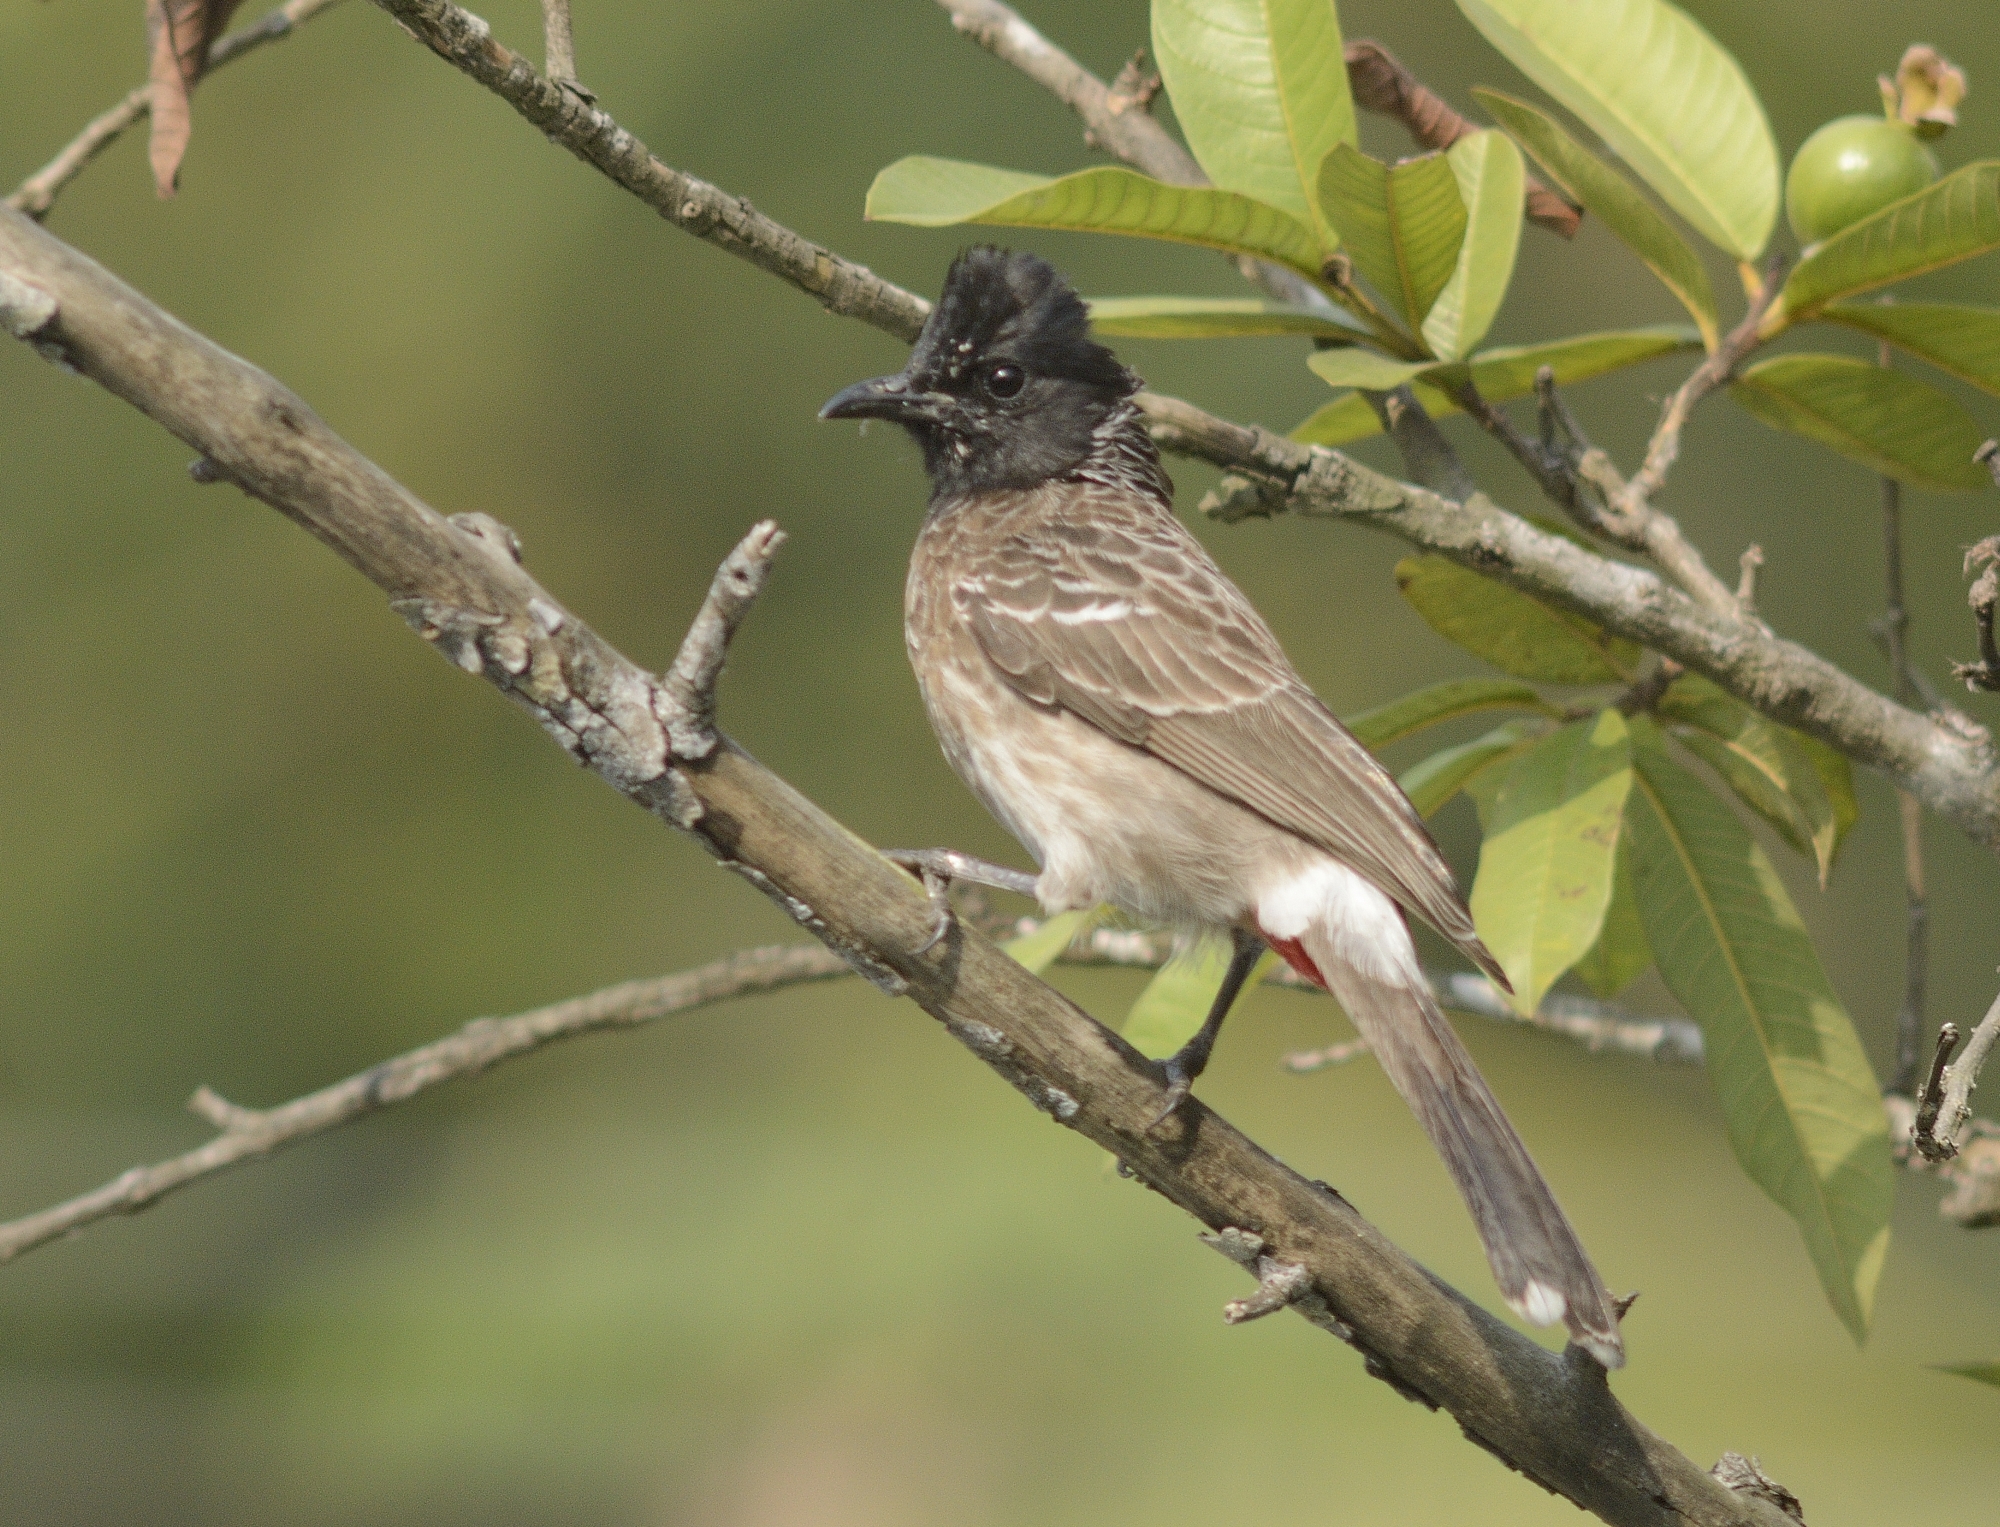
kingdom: Animalia
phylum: Chordata
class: Aves
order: Passeriformes
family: Pycnonotidae
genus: Pycnonotus
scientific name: Pycnonotus cafer
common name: Red-vented bulbul
